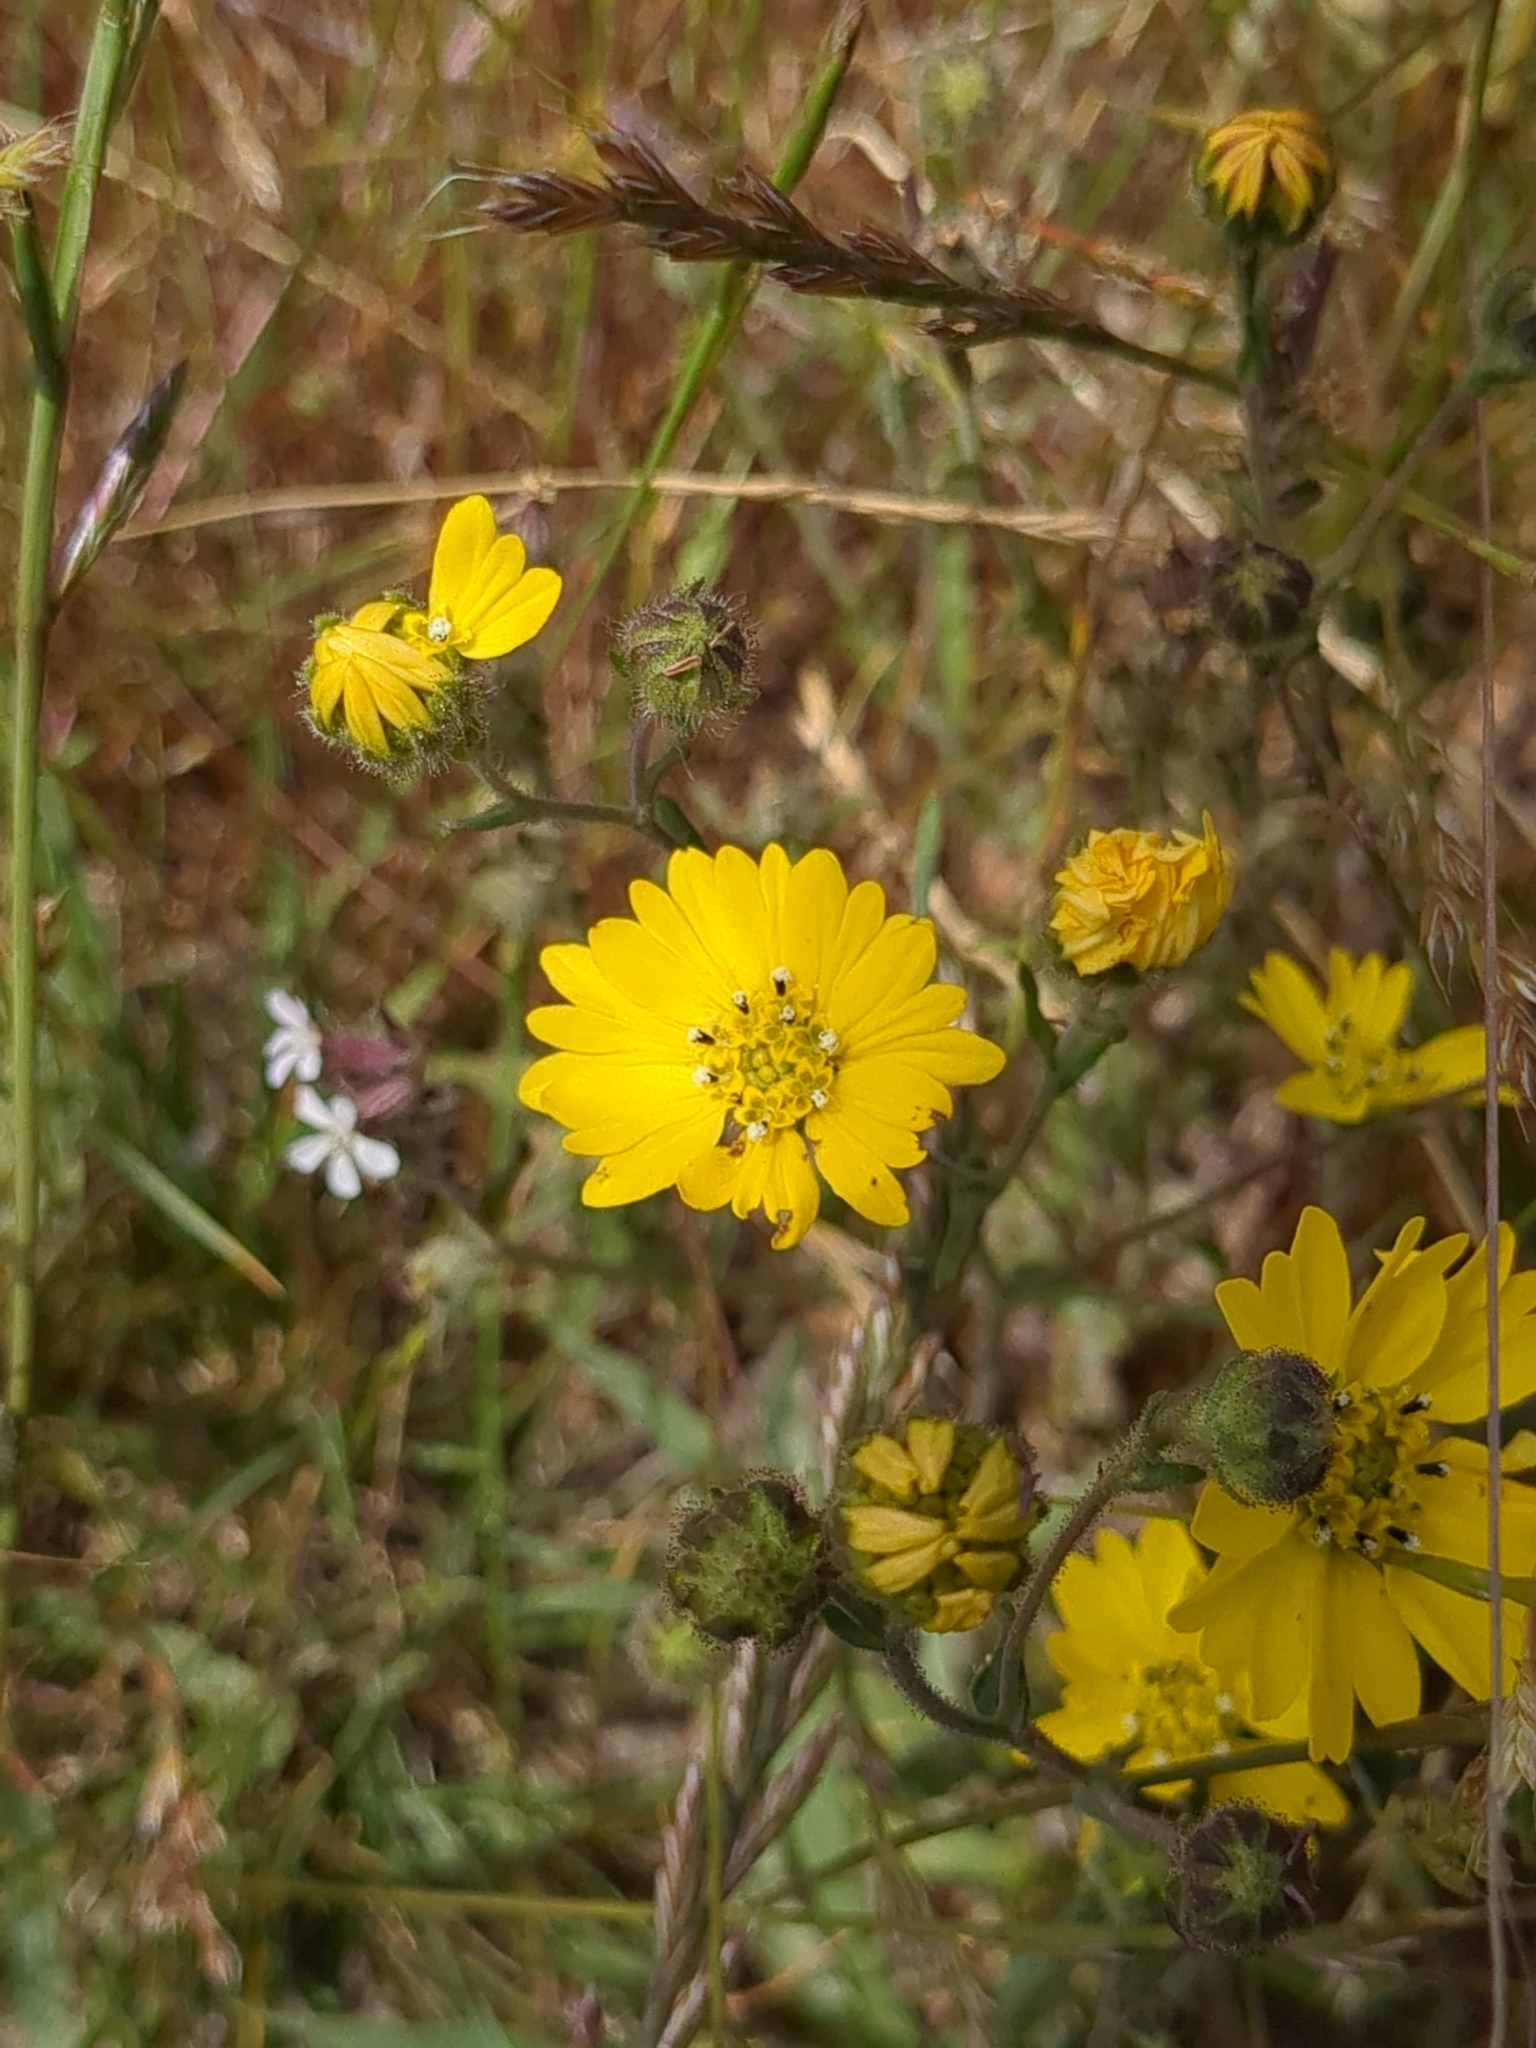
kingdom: Plantae
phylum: Tracheophyta
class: Magnoliopsida
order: Asterales
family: Asteraceae
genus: Hemizonia
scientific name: Hemizonia congesta
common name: Hayfield tarweed
